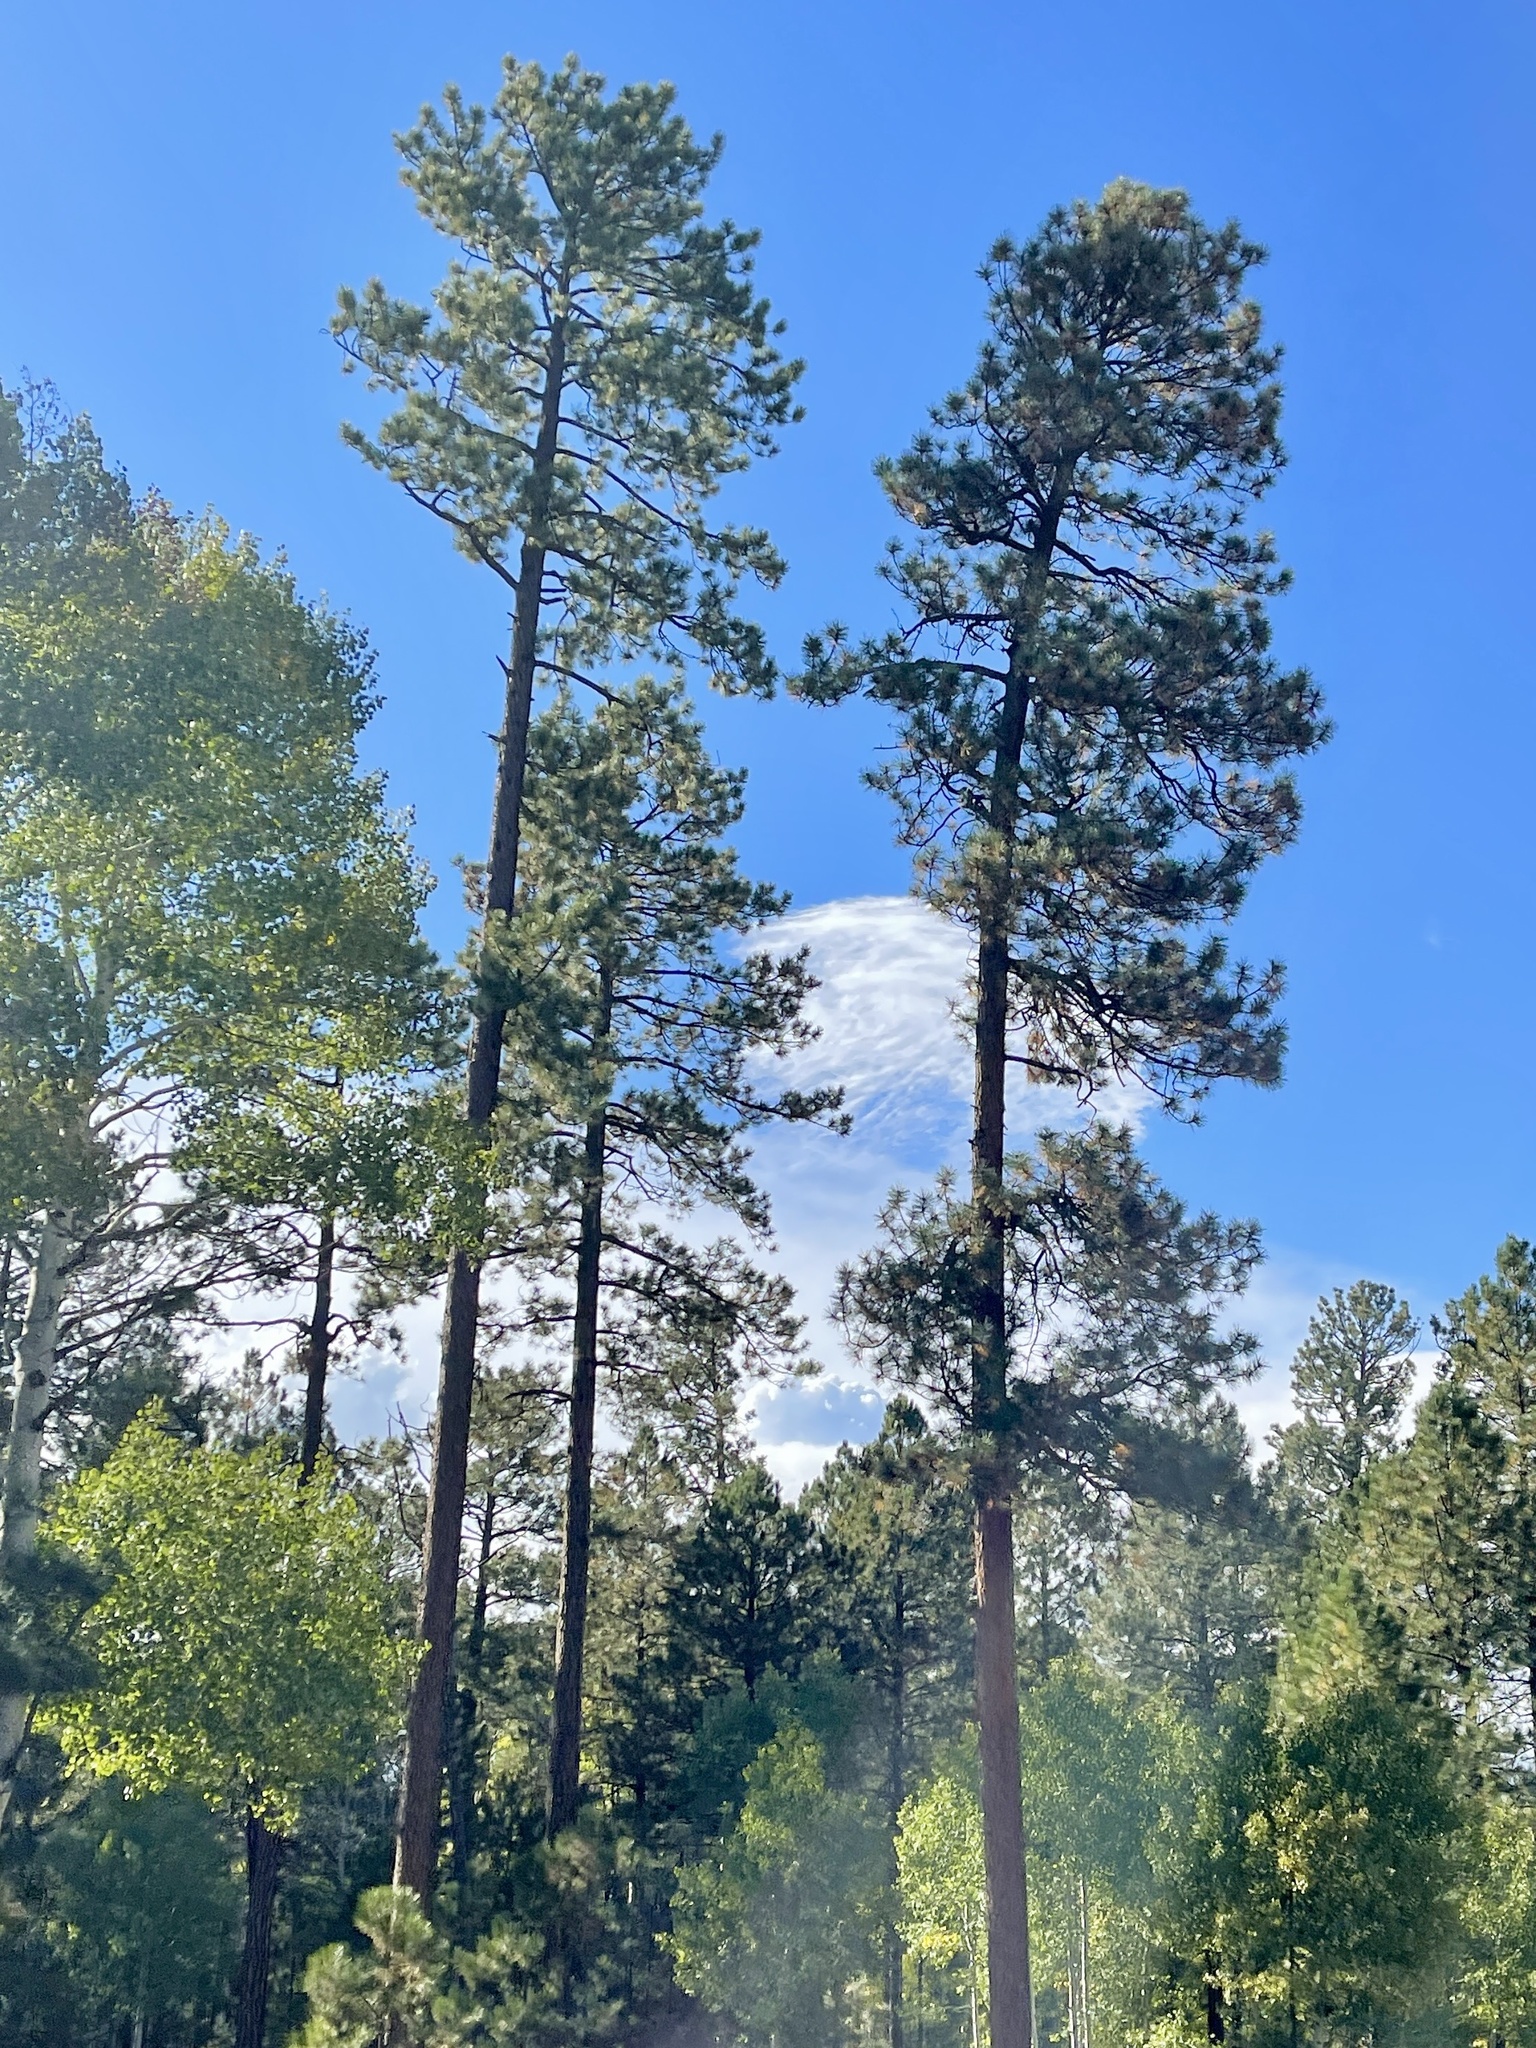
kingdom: Plantae
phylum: Tracheophyta
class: Pinopsida
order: Pinales
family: Pinaceae
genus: Pinus
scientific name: Pinus ponderosa
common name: Western yellow-pine
